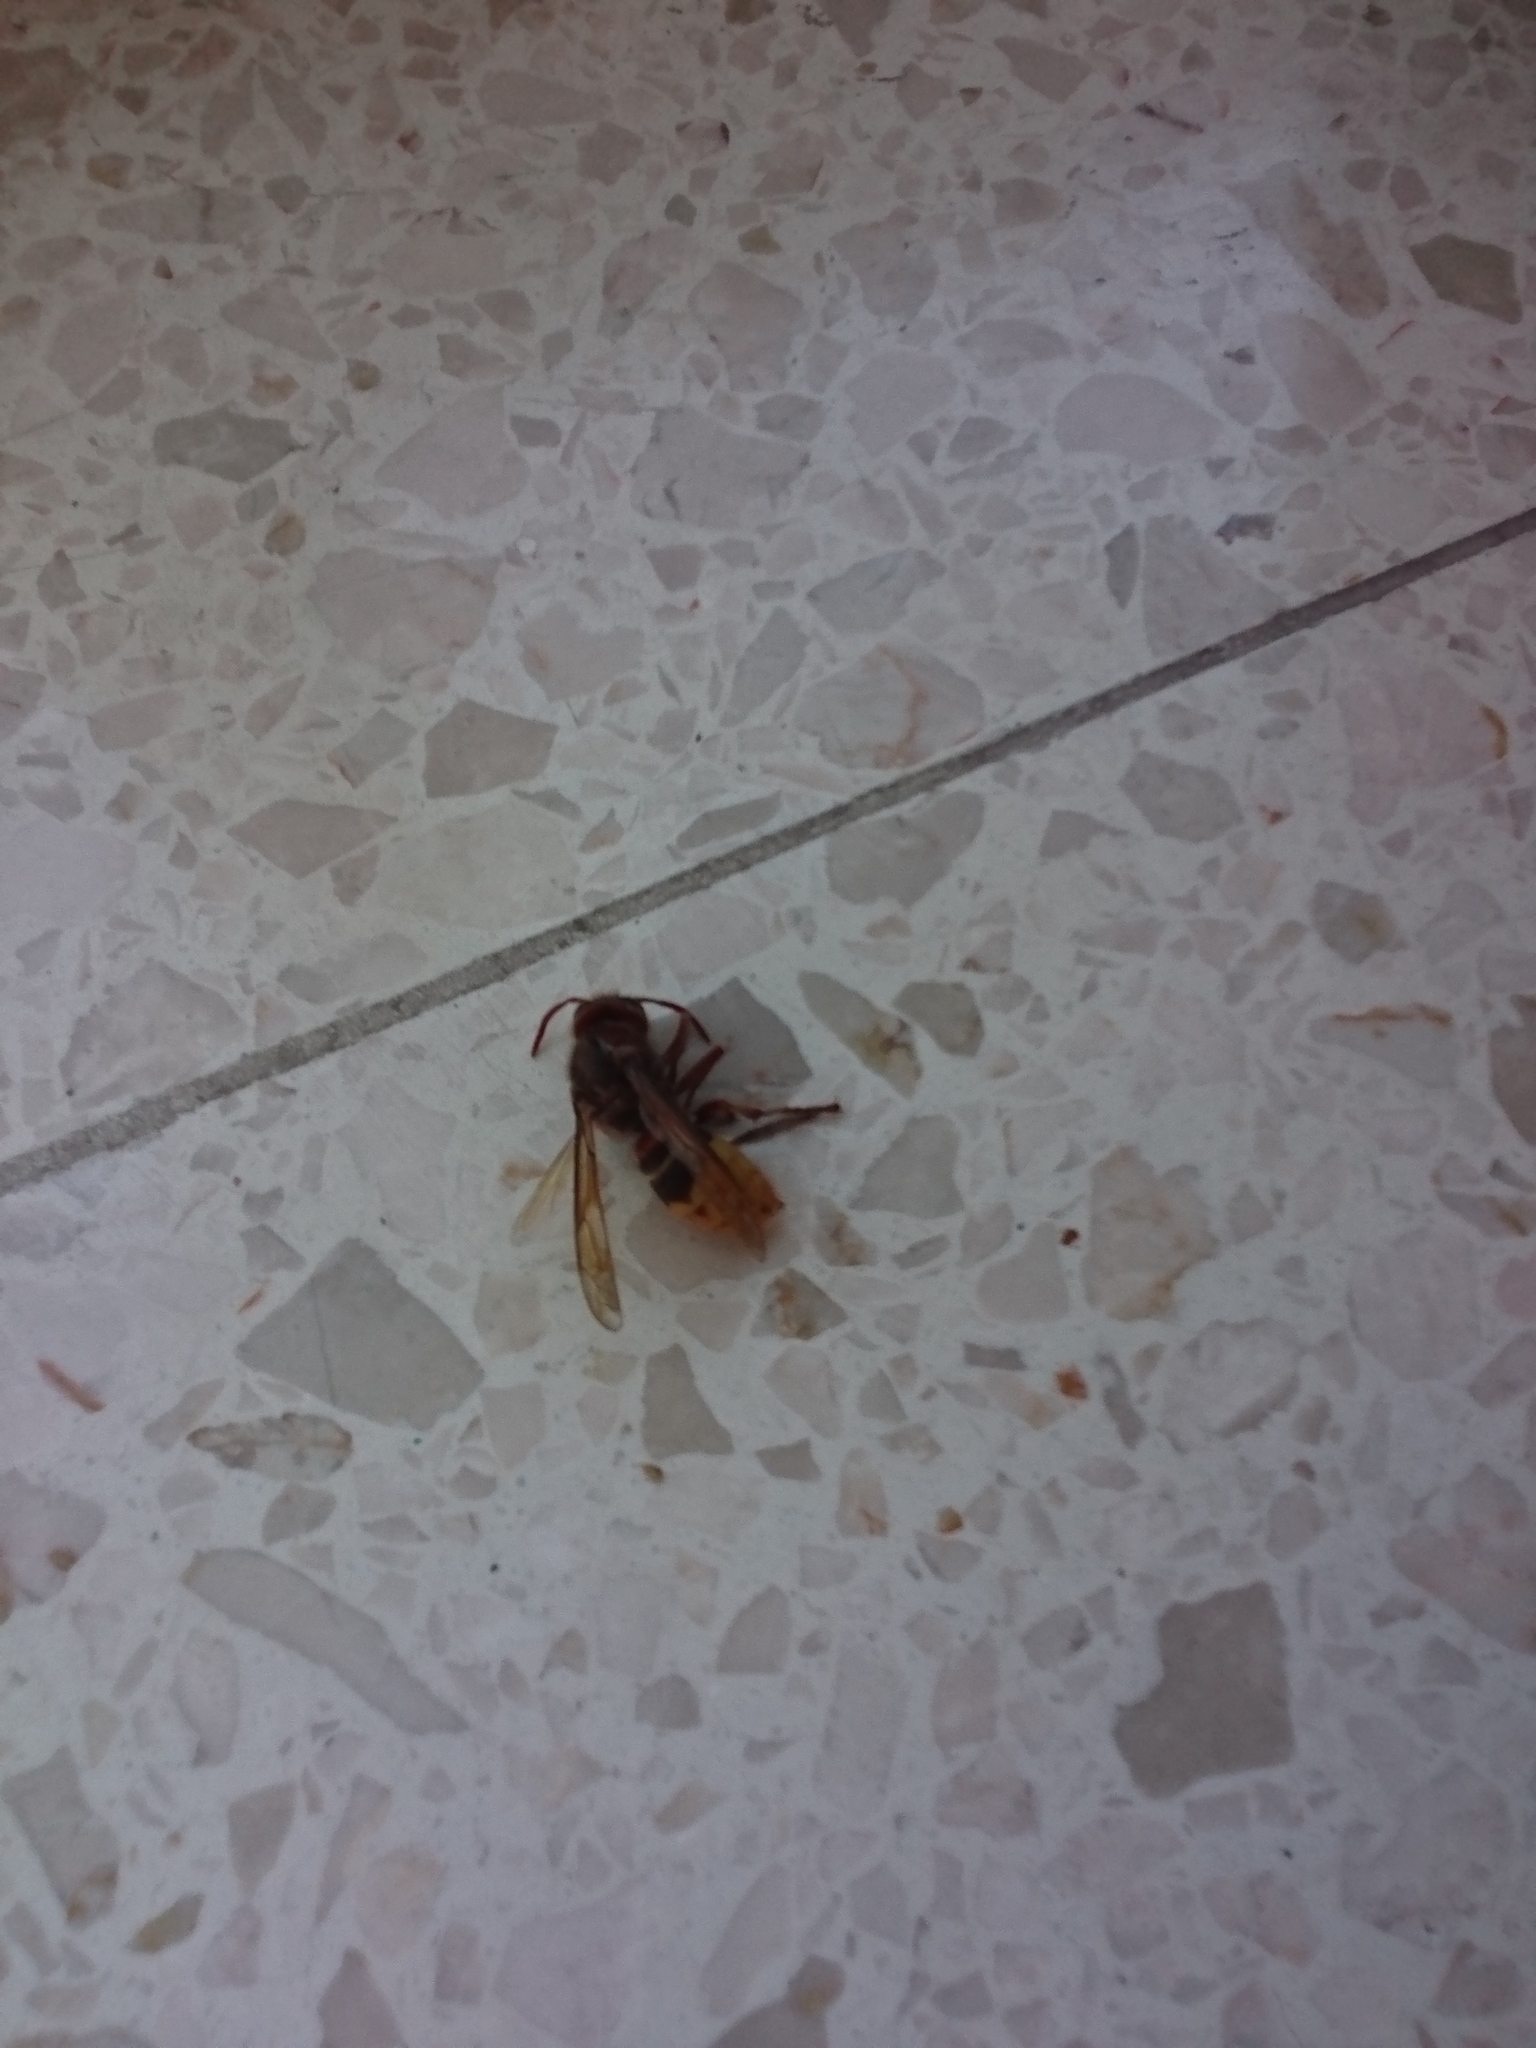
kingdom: Animalia
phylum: Arthropoda
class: Insecta
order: Hymenoptera
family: Vespidae
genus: Vespa
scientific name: Vespa crabro
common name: Hornet
